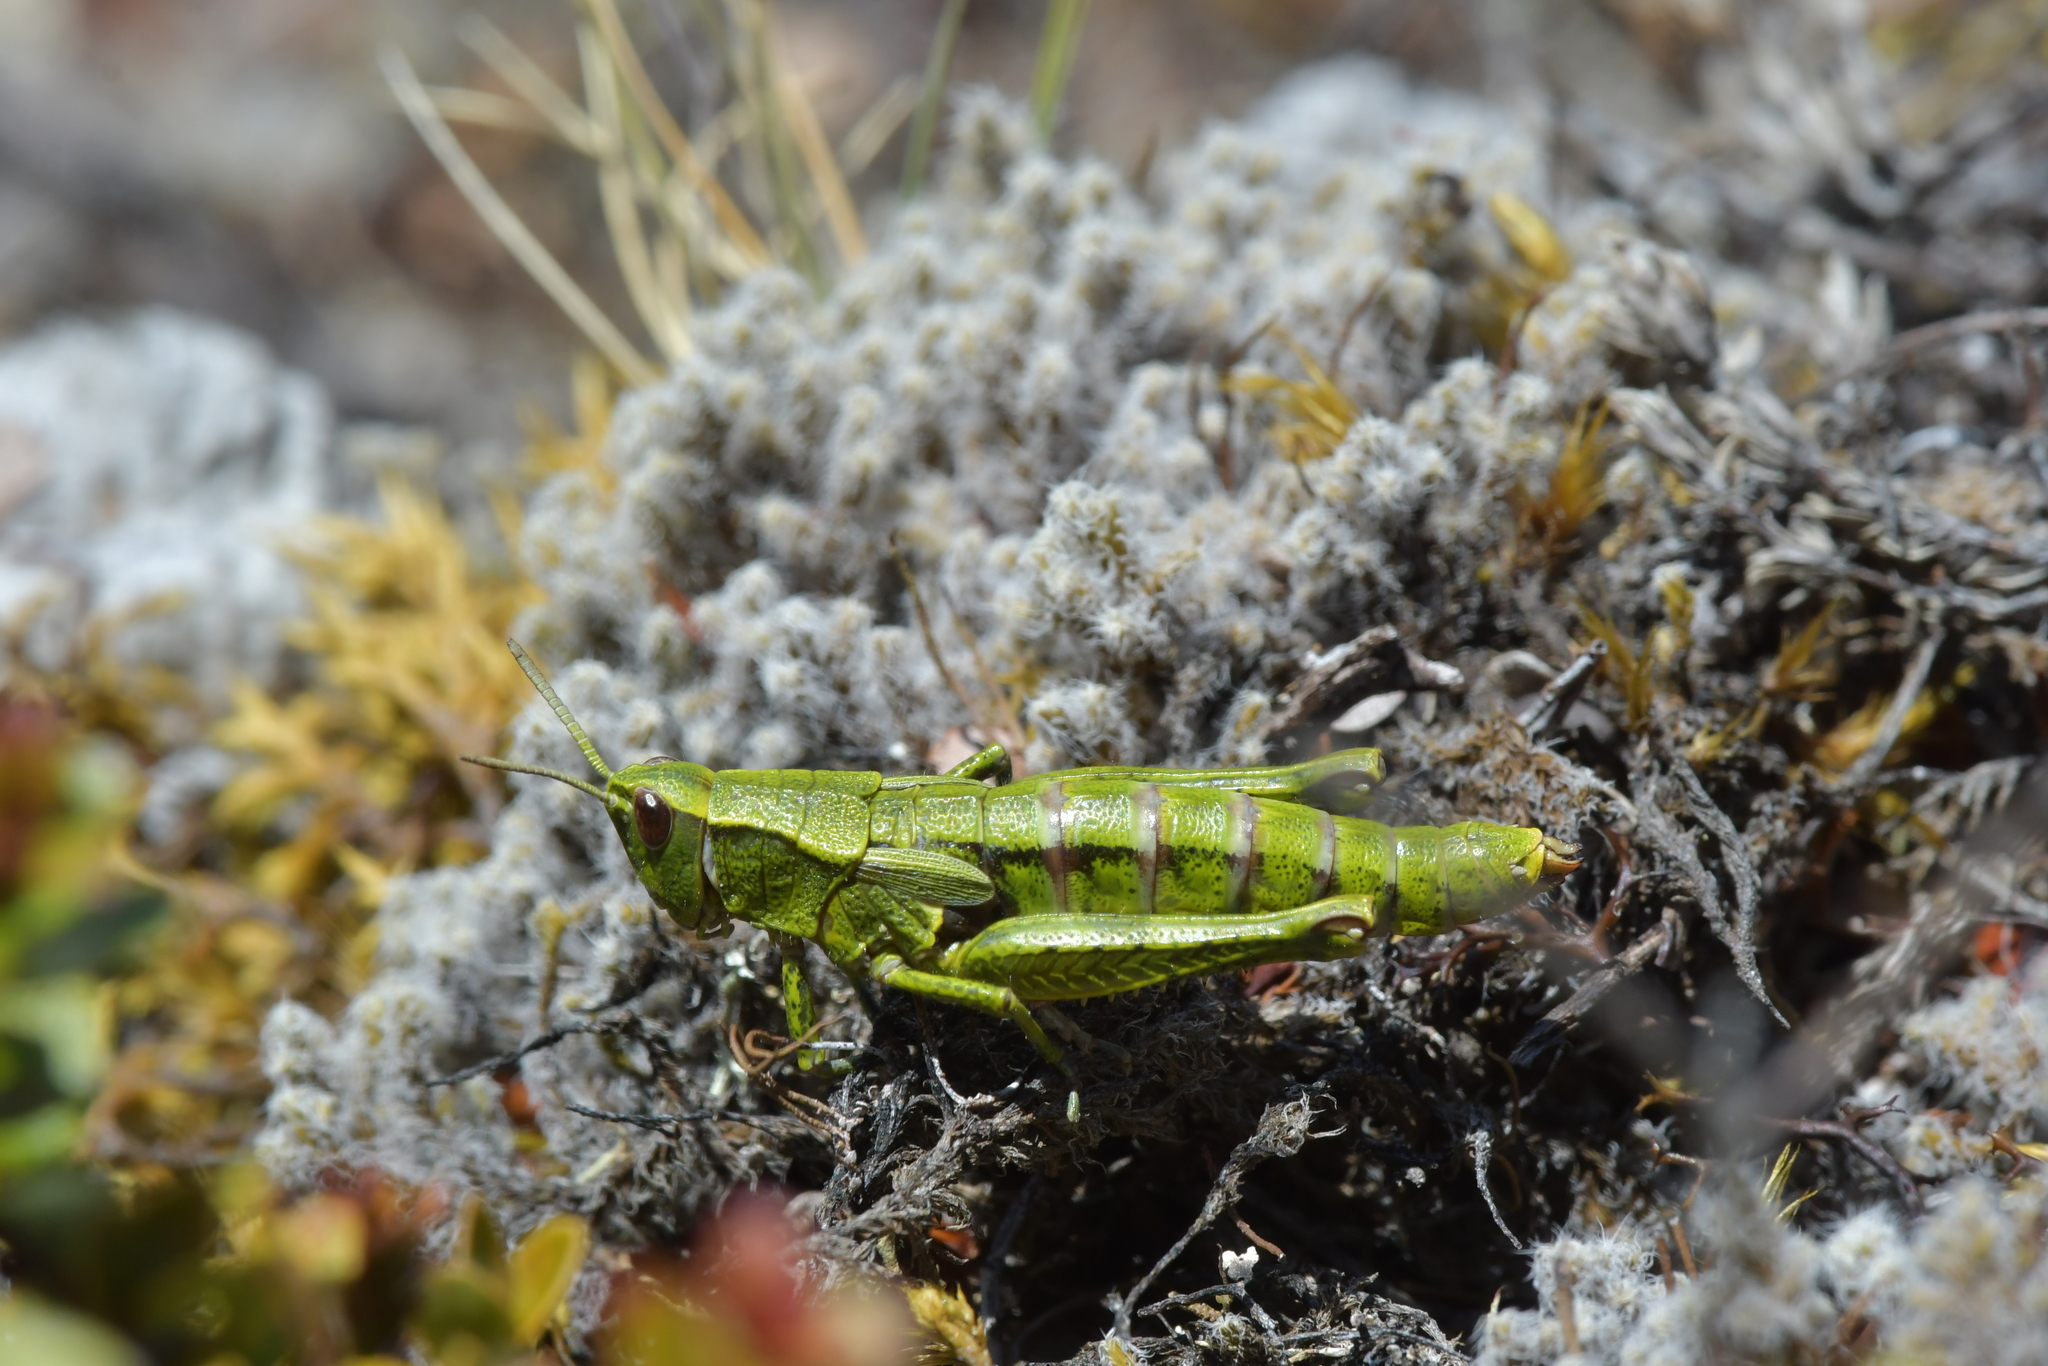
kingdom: Animalia
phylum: Arthropoda
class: Insecta
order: Orthoptera
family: Acrididae
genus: Sigaus
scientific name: Sigaus piliferus
